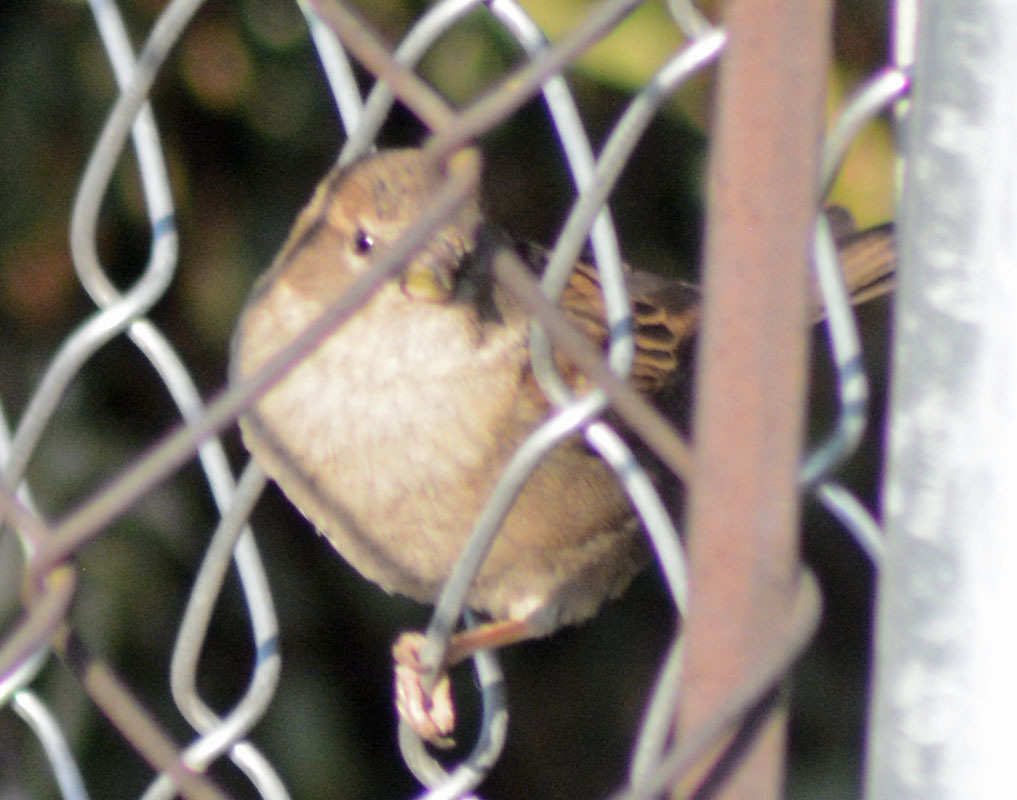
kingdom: Animalia
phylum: Chordata
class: Aves
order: Passeriformes
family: Passeridae
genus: Passer
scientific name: Passer domesticus
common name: House sparrow
